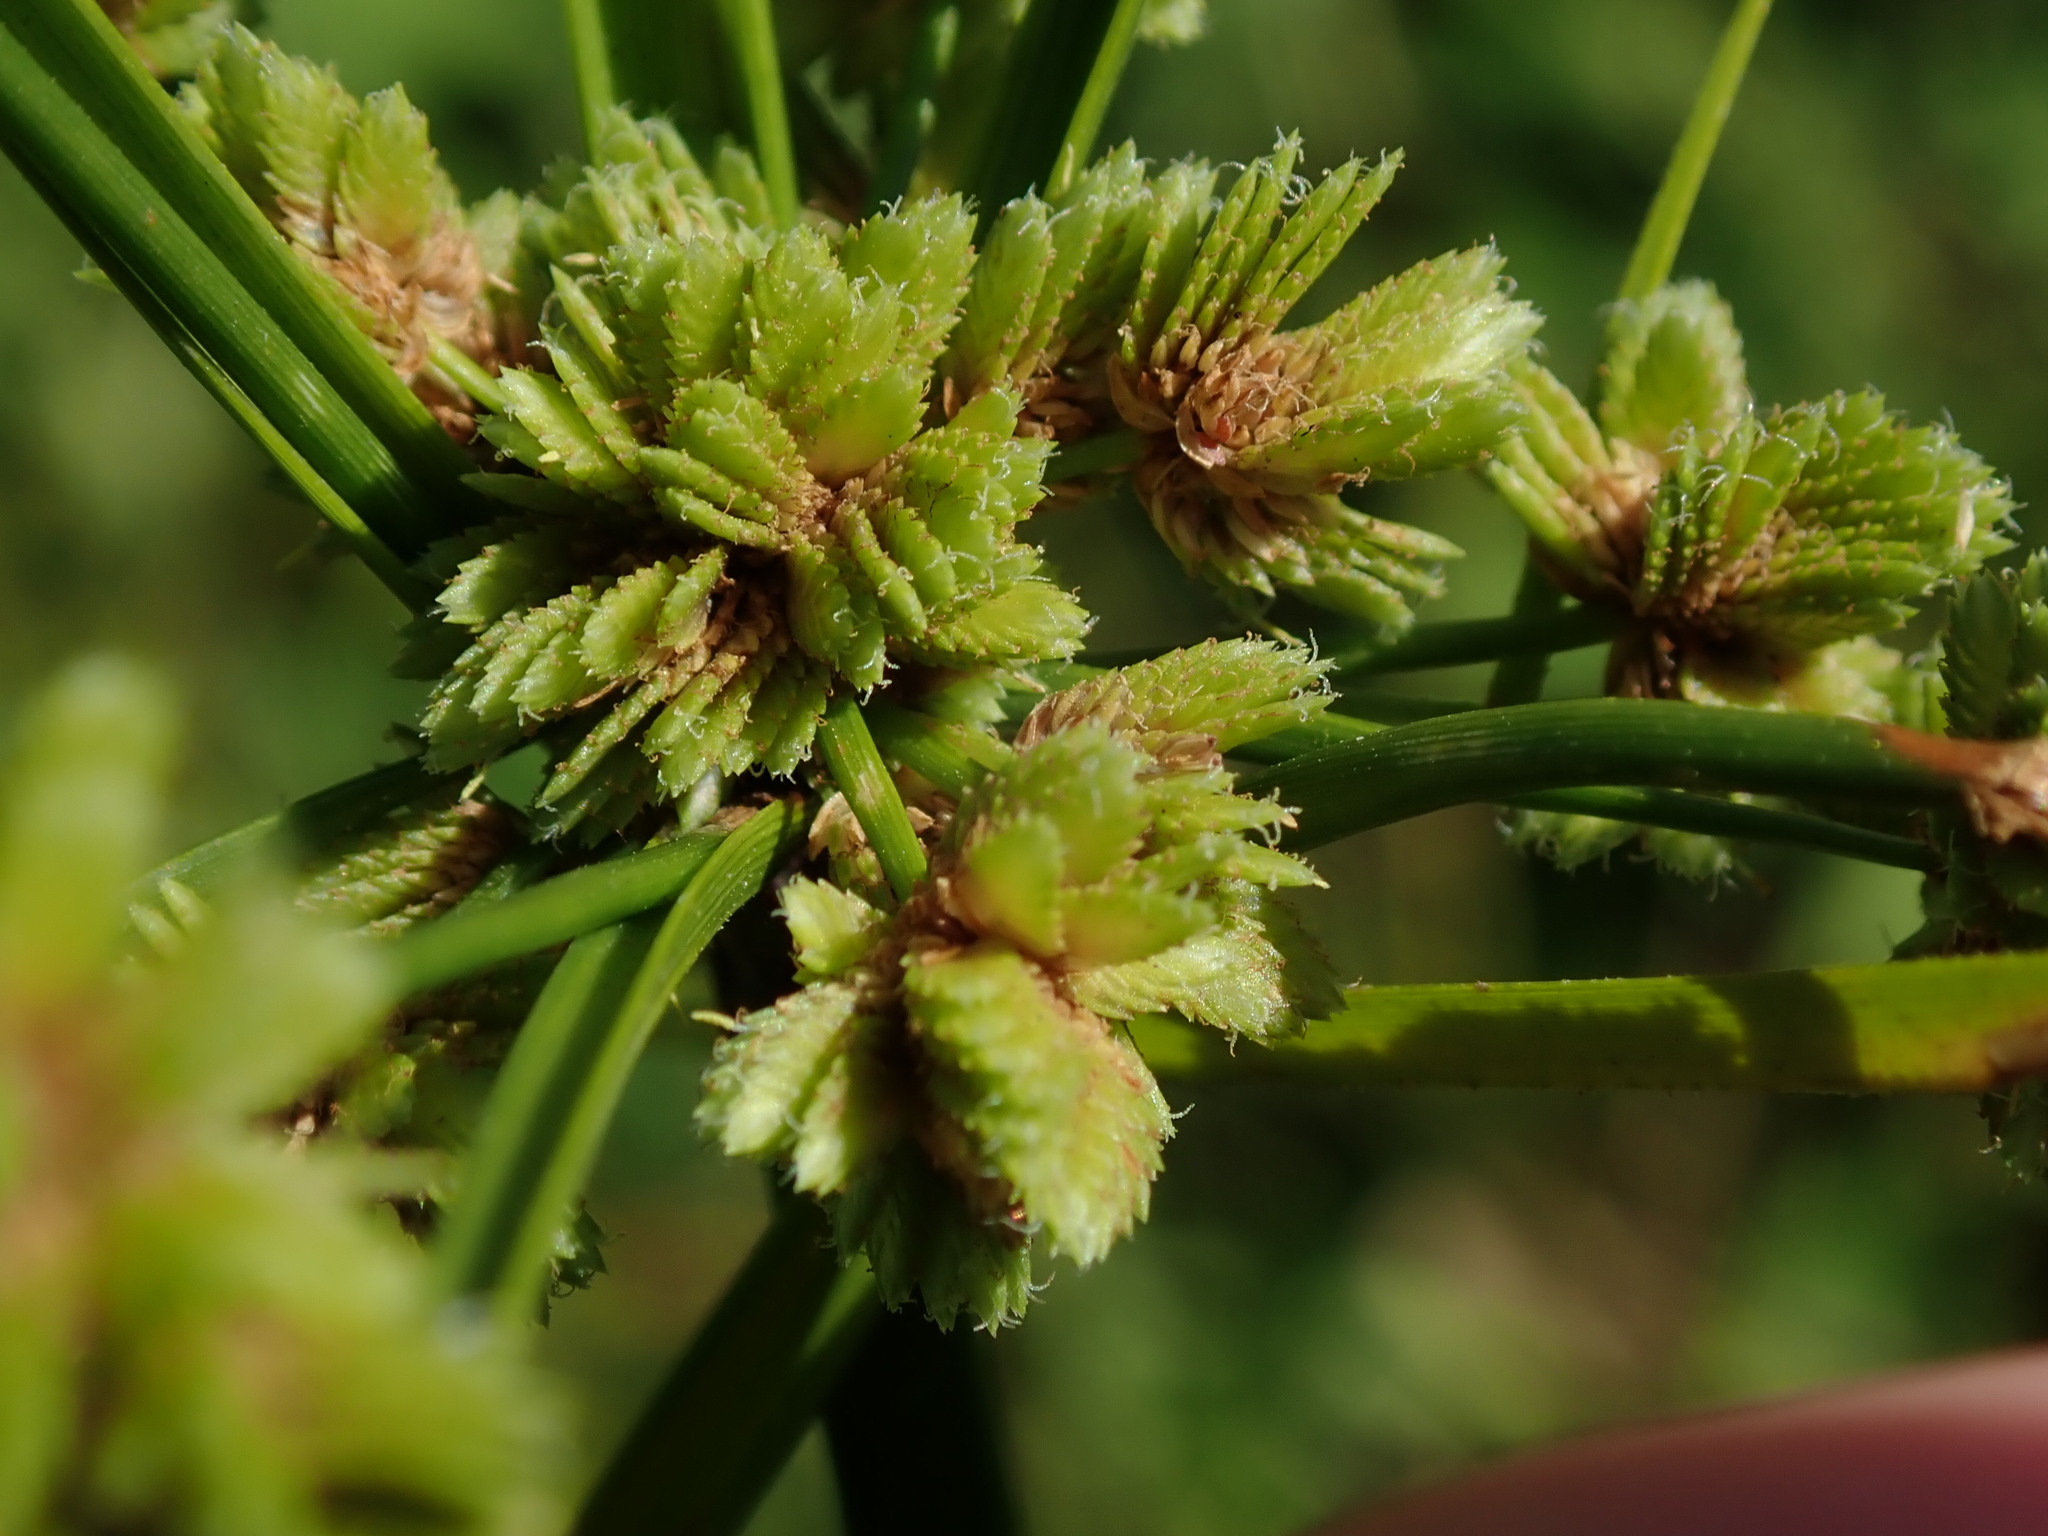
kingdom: Plantae
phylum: Tracheophyta
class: Liliopsida
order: Poales
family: Cyperaceae
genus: Cyperus
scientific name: Cyperus surinamensis
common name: Tropical flat sedge
